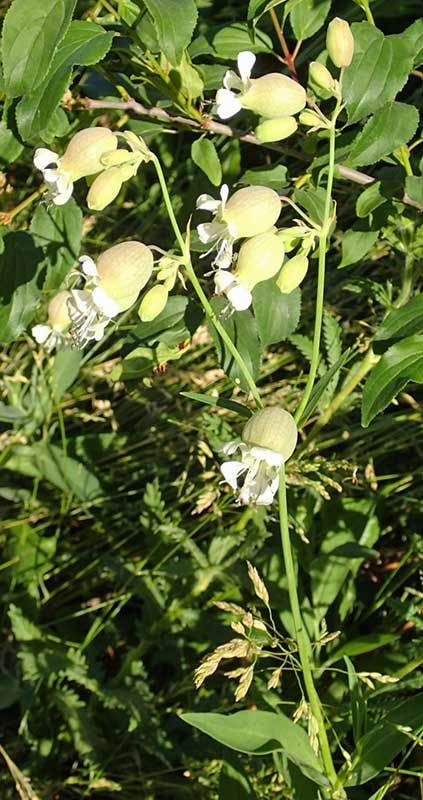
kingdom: Plantae
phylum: Tracheophyta
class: Magnoliopsida
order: Caryophyllales
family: Caryophyllaceae
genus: Silene
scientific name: Silene vulgaris
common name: Bladder campion
